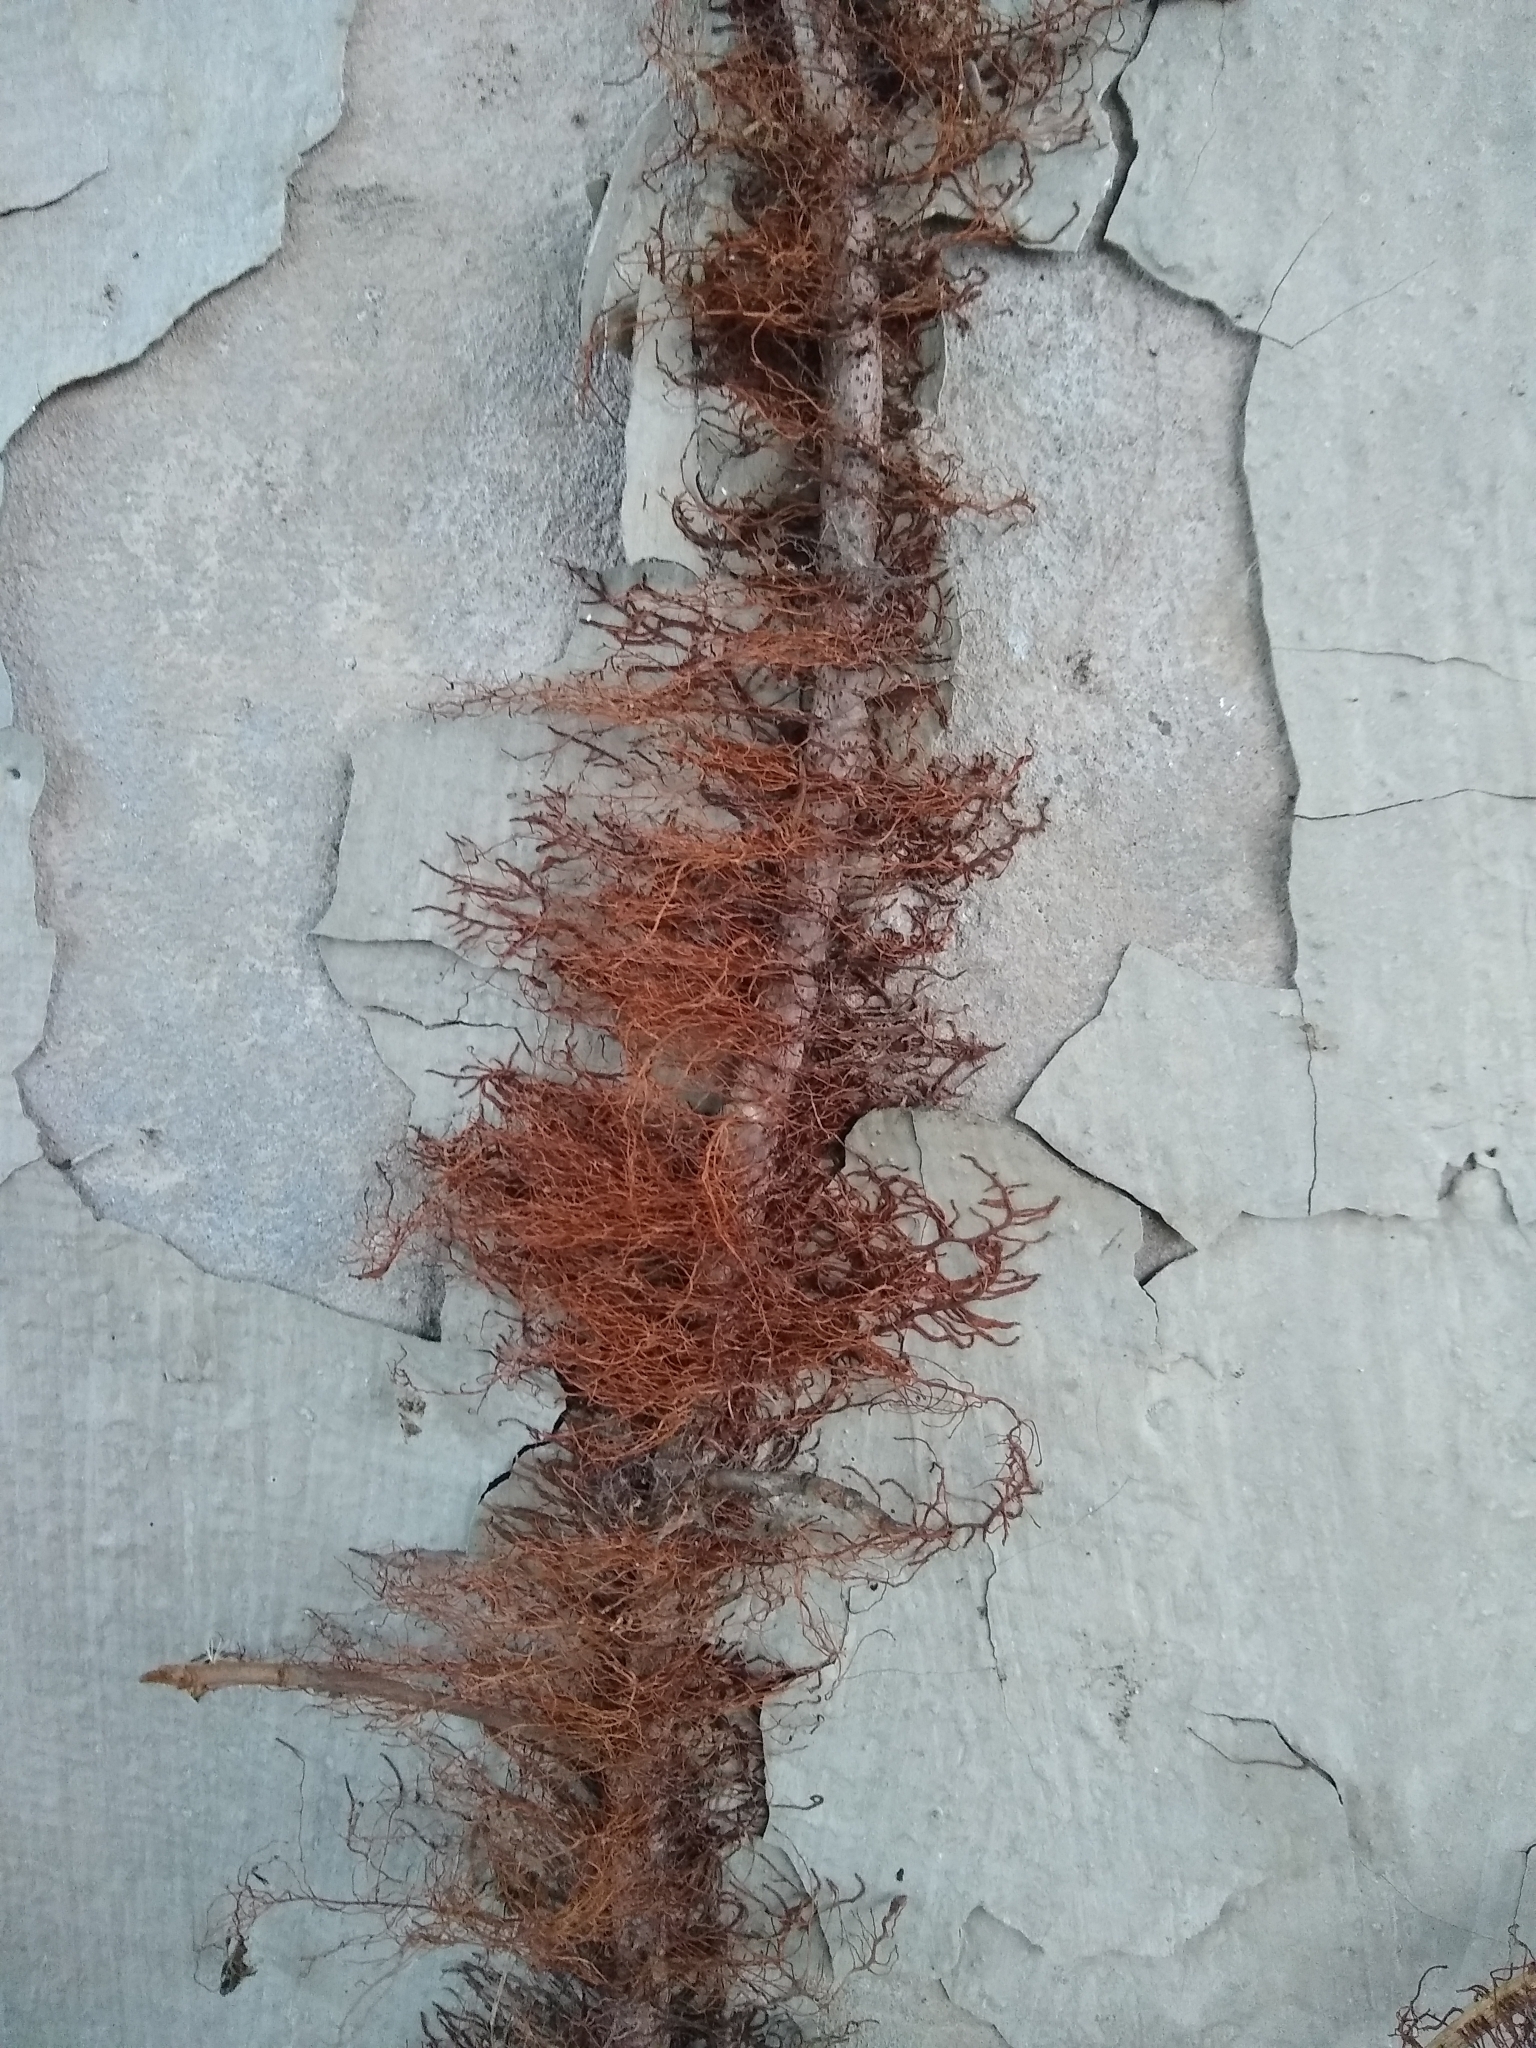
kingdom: Plantae
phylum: Tracheophyta
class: Magnoliopsida
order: Sapindales
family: Anacardiaceae
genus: Toxicodendron
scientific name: Toxicodendron radicans
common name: Poison ivy
